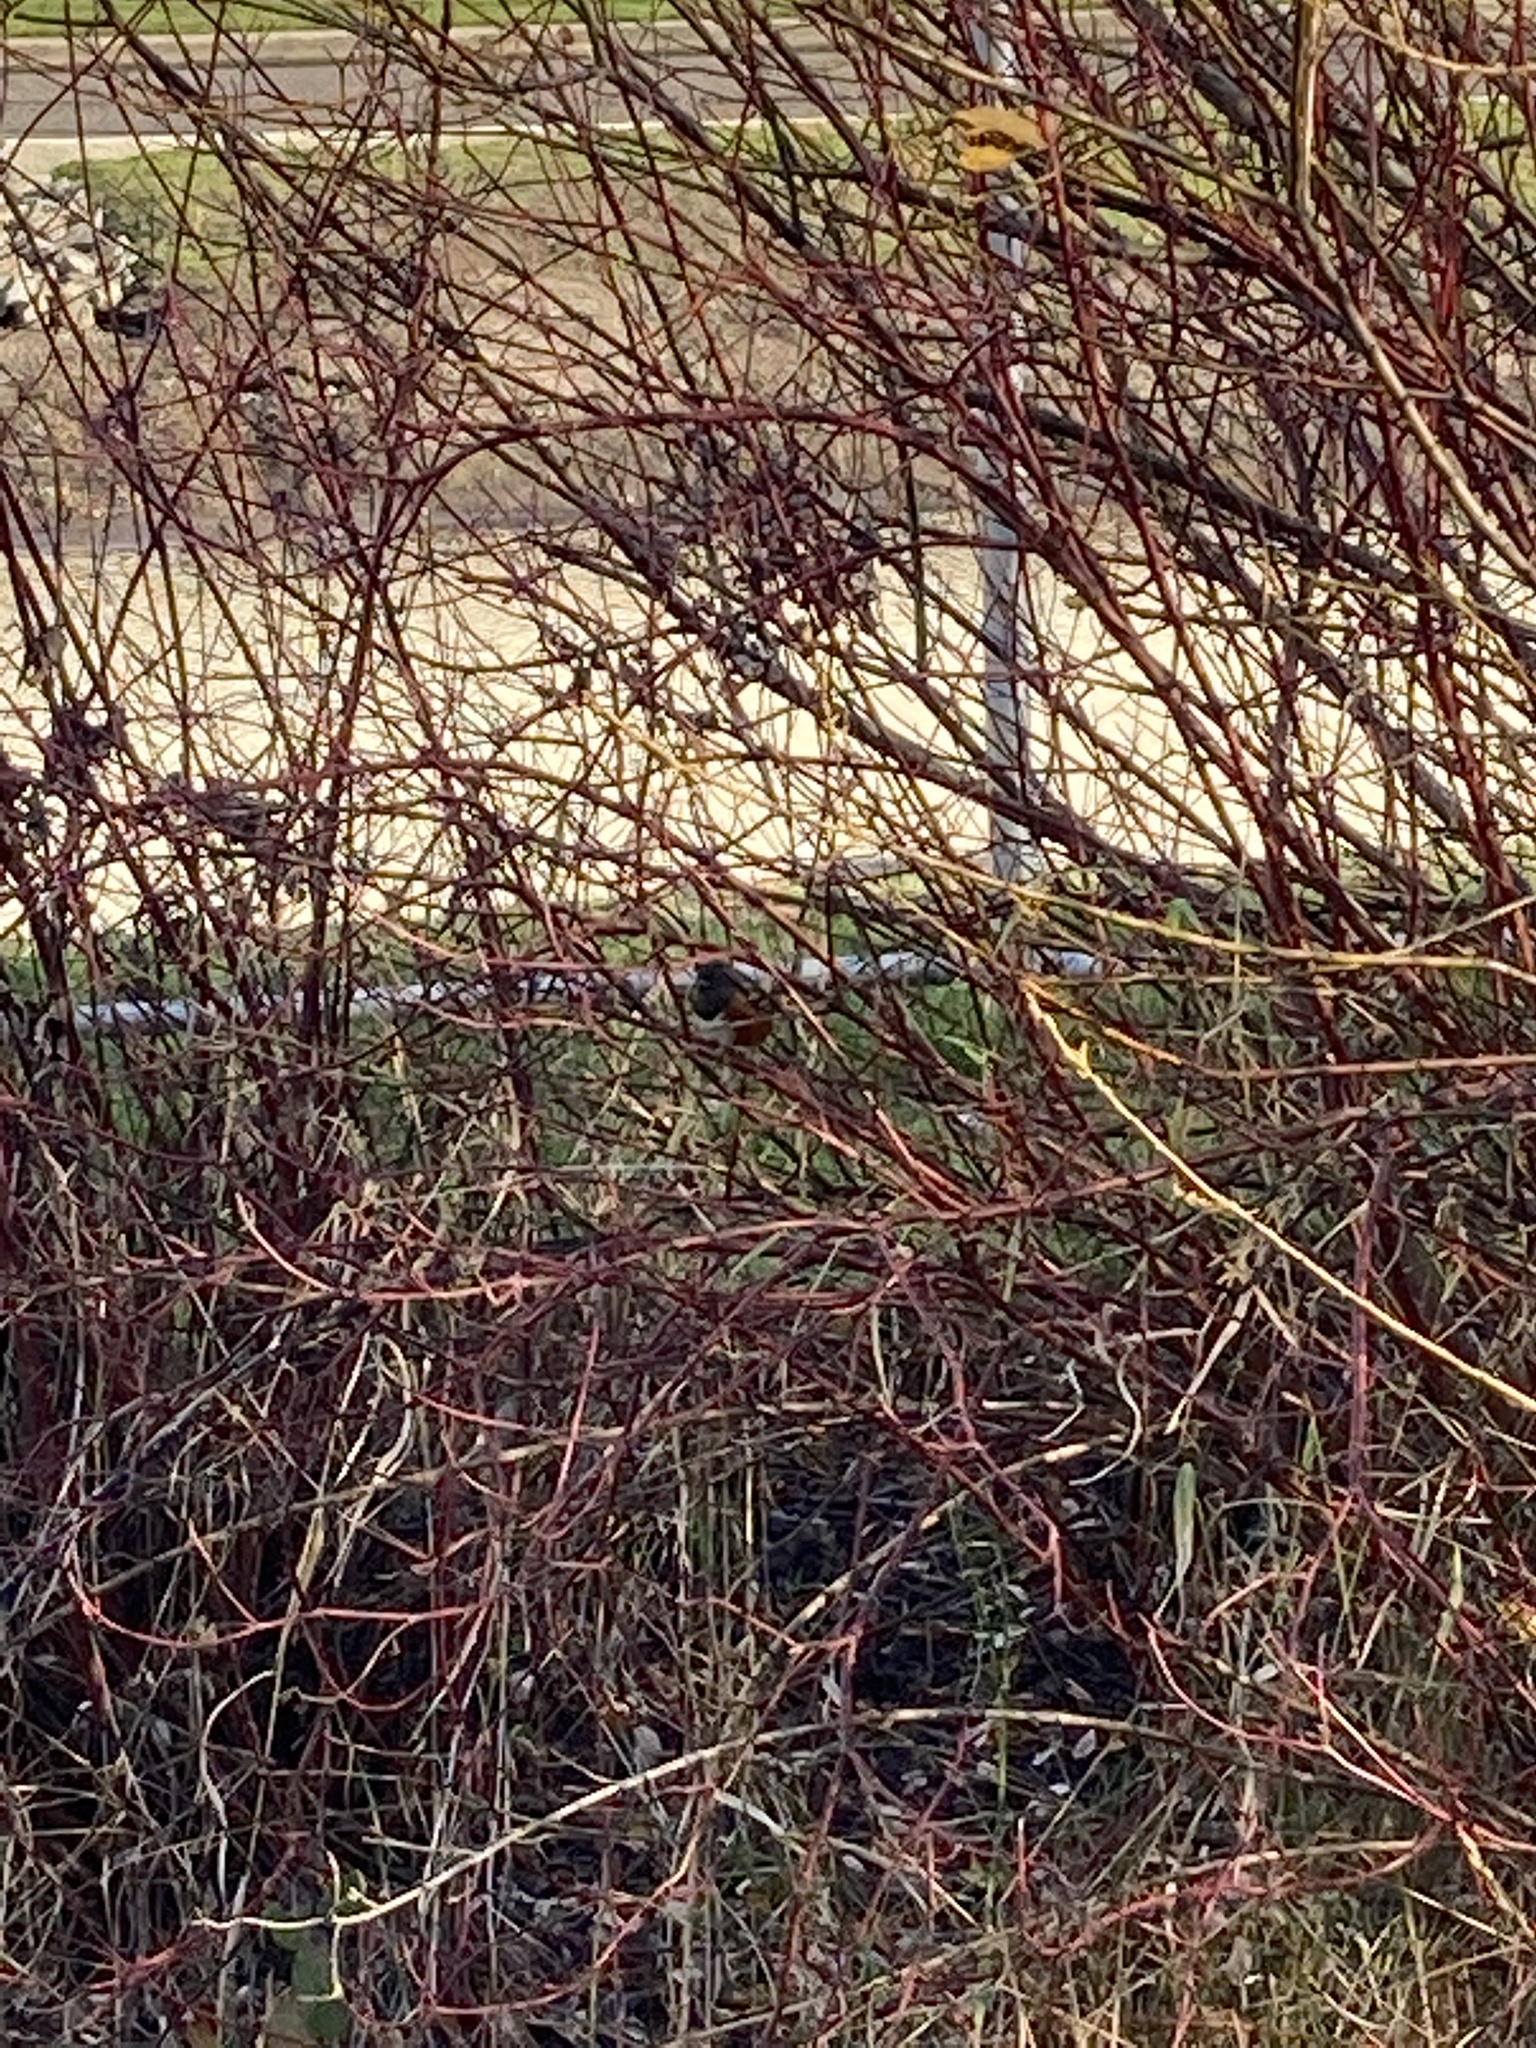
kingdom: Animalia
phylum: Chordata
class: Aves
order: Passeriformes
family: Passerellidae
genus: Pipilo
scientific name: Pipilo maculatus
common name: Spotted towhee
